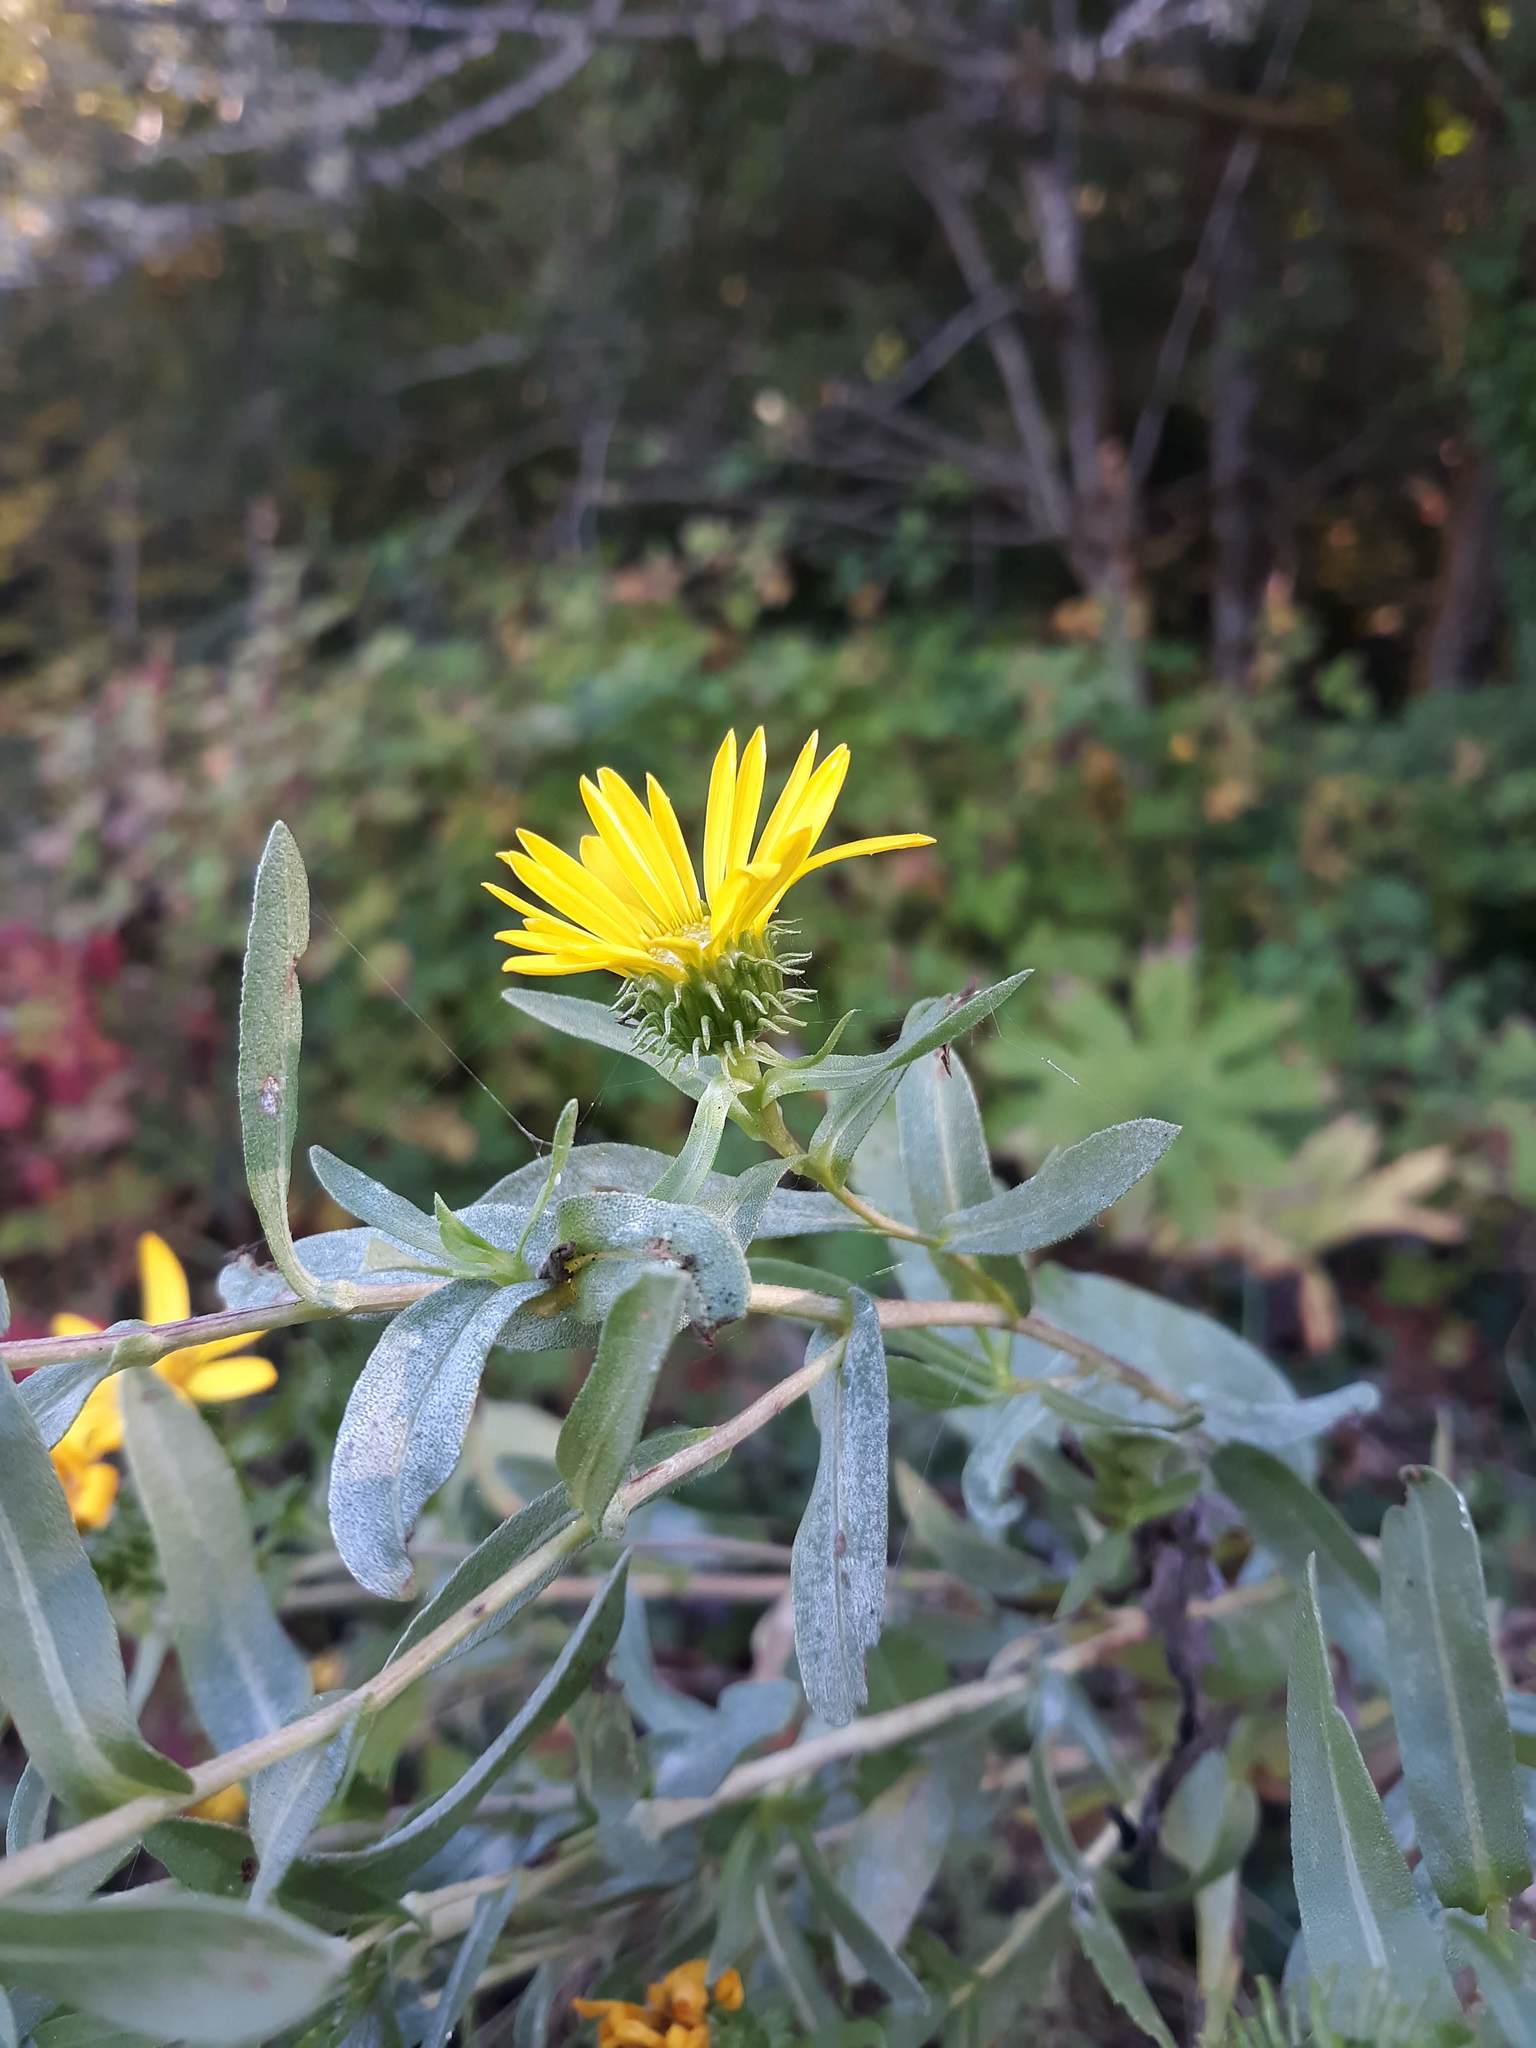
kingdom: Plantae
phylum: Tracheophyta
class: Magnoliopsida
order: Asterales
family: Asteraceae
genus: Grindelia
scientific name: Grindelia integrifolia
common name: Puget sound gumweed
